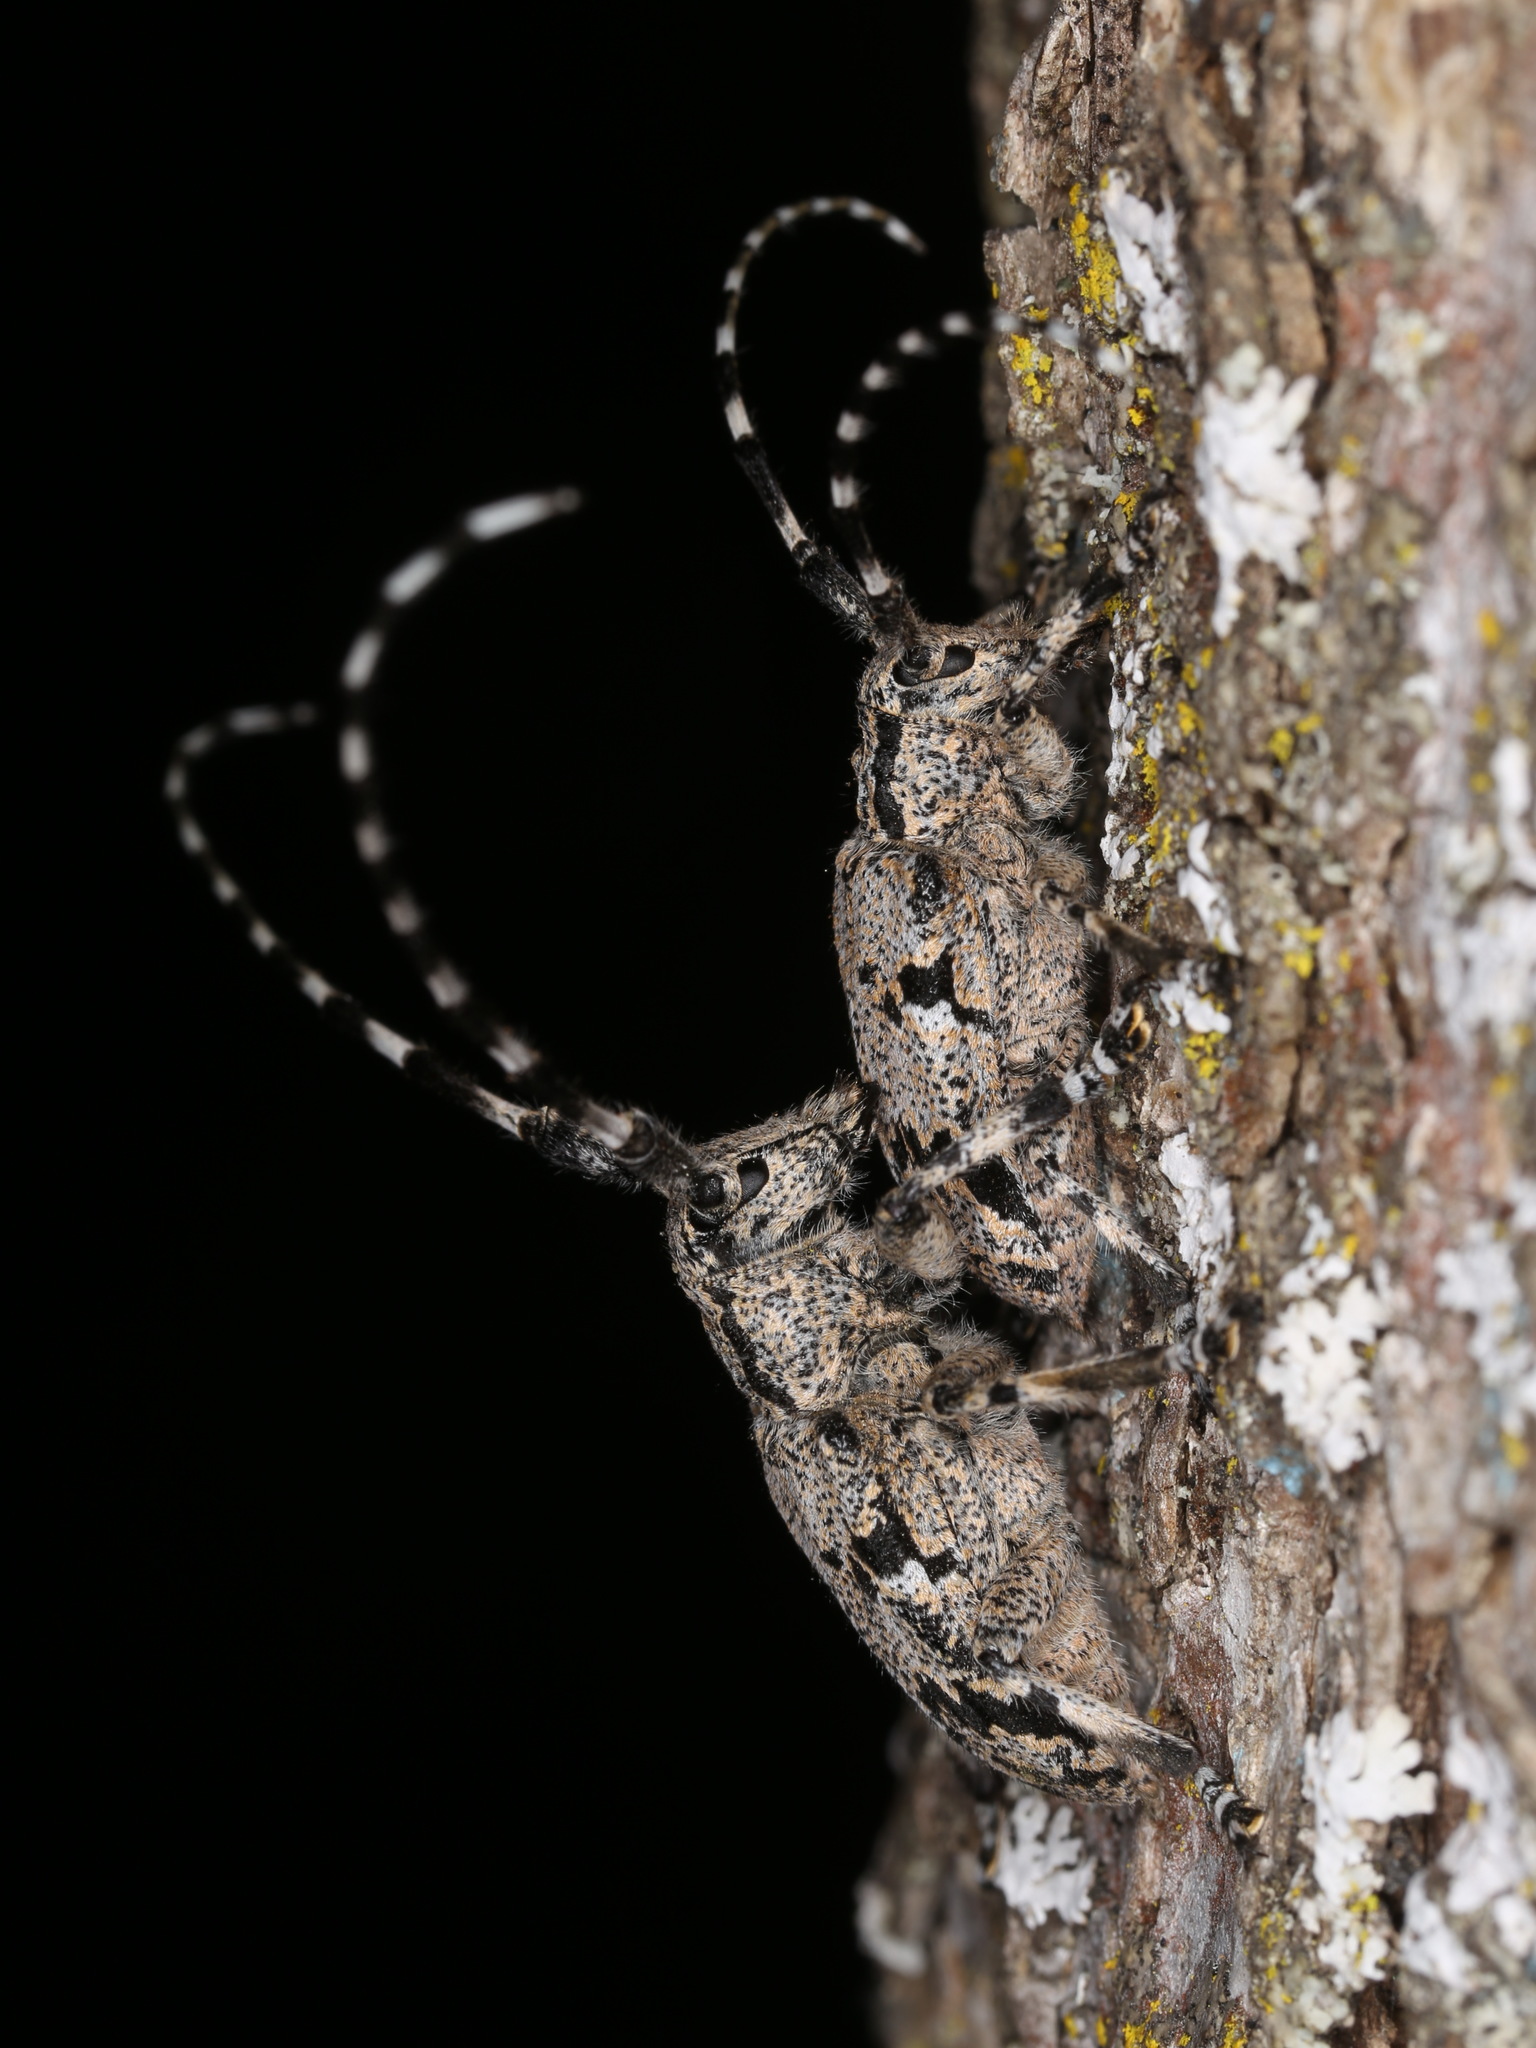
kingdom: Animalia
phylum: Arthropoda
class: Insecta
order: Coleoptera
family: Cerambycidae
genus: Synaphaeta
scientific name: Synaphaeta guexi
